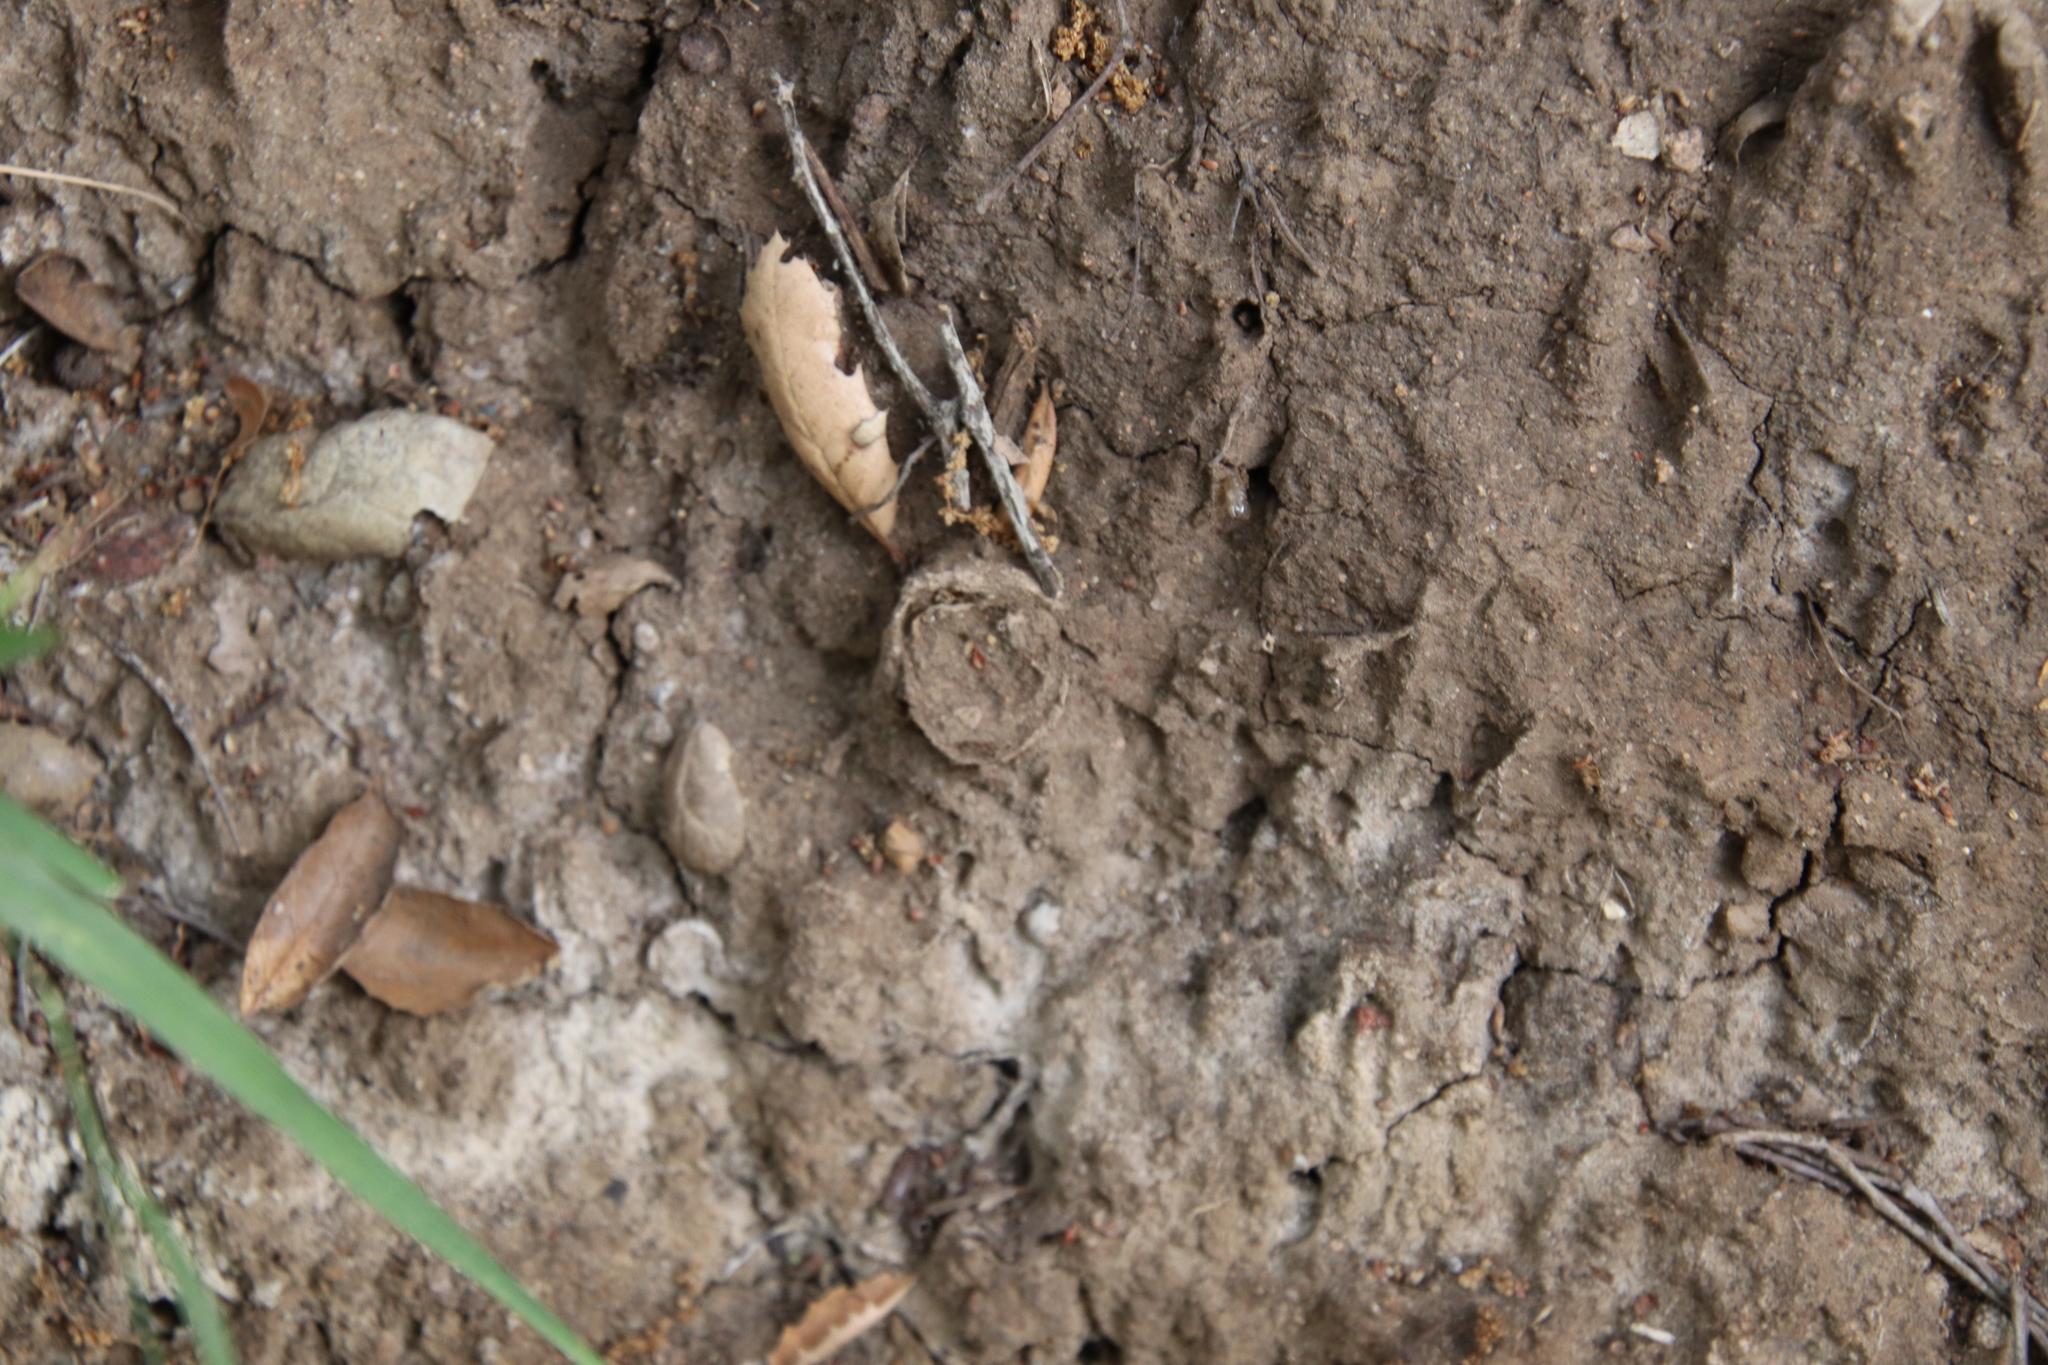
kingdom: Animalia
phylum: Arthropoda
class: Arachnida
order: Araneae
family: Halonoproctidae
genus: Bothriocyrtum
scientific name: Bothriocyrtum californicum
